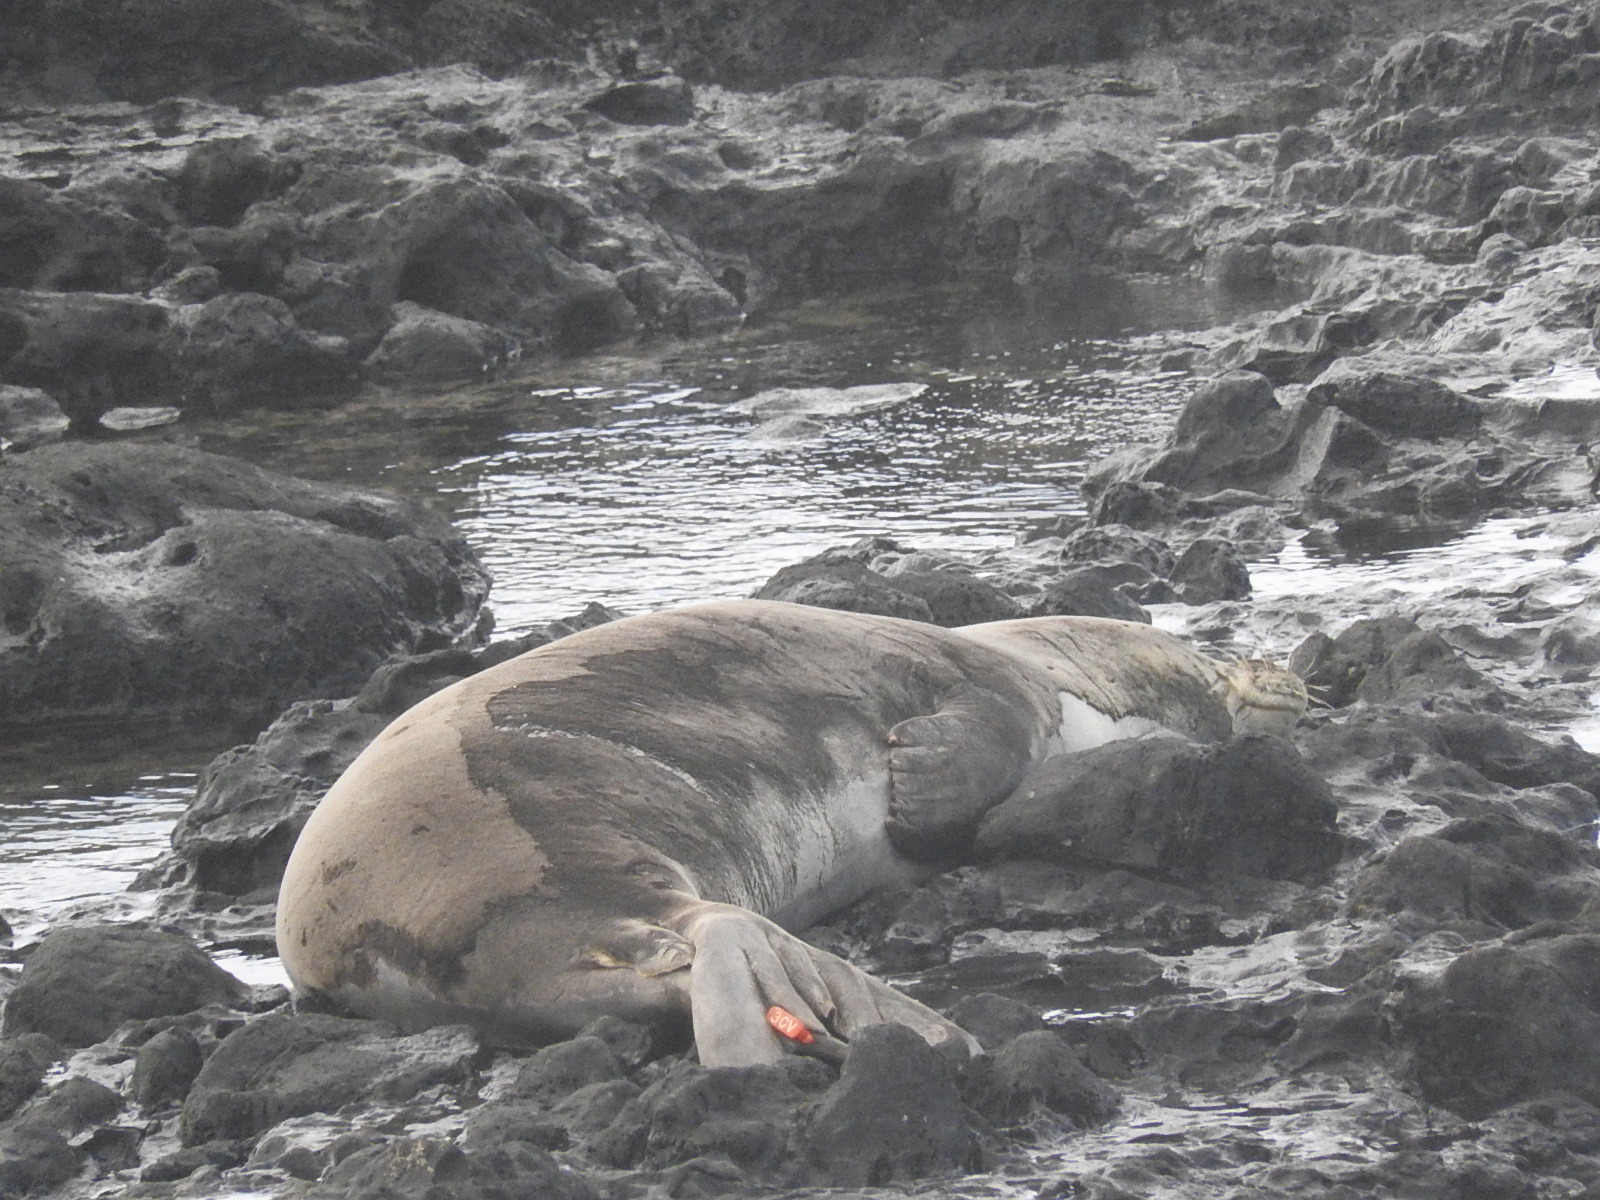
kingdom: Animalia
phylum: Chordata
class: Mammalia
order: Carnivora
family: Phocidae
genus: Neomonachus
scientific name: Neomonachus schauinslandi
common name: Hawaiian monk seal
